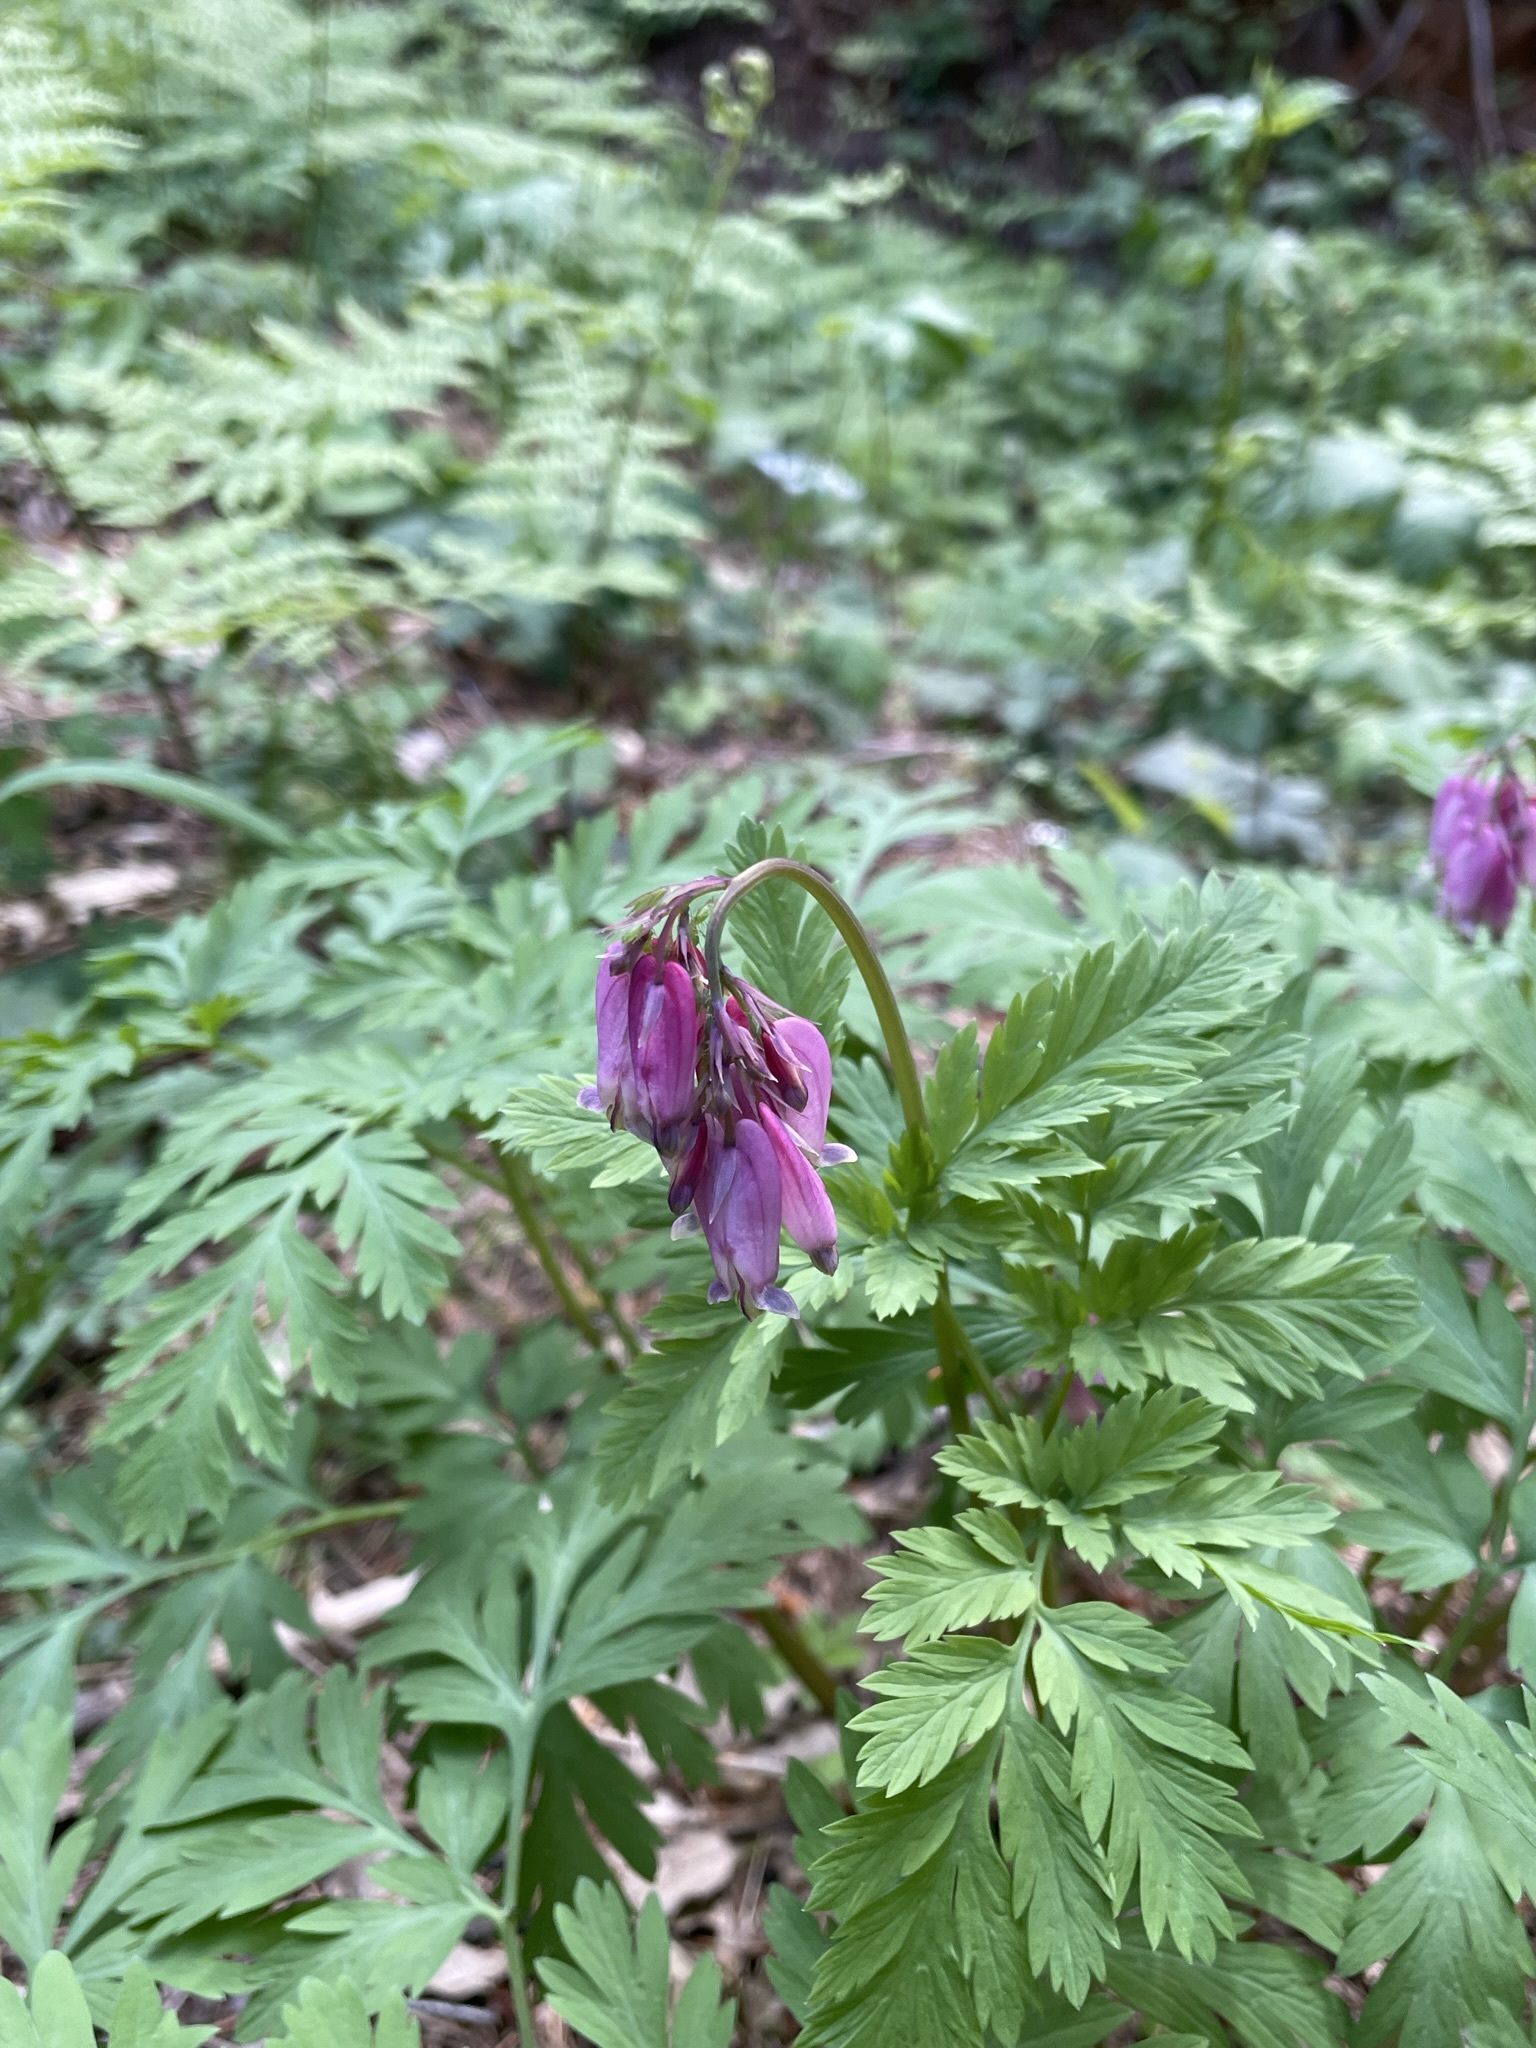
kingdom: Plantae
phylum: Tracheophyta
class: Magnoliopsida
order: Ranunculales
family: Papaveraceae
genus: Dicentra
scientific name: Dicentra formosa
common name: Bleeding-heart
